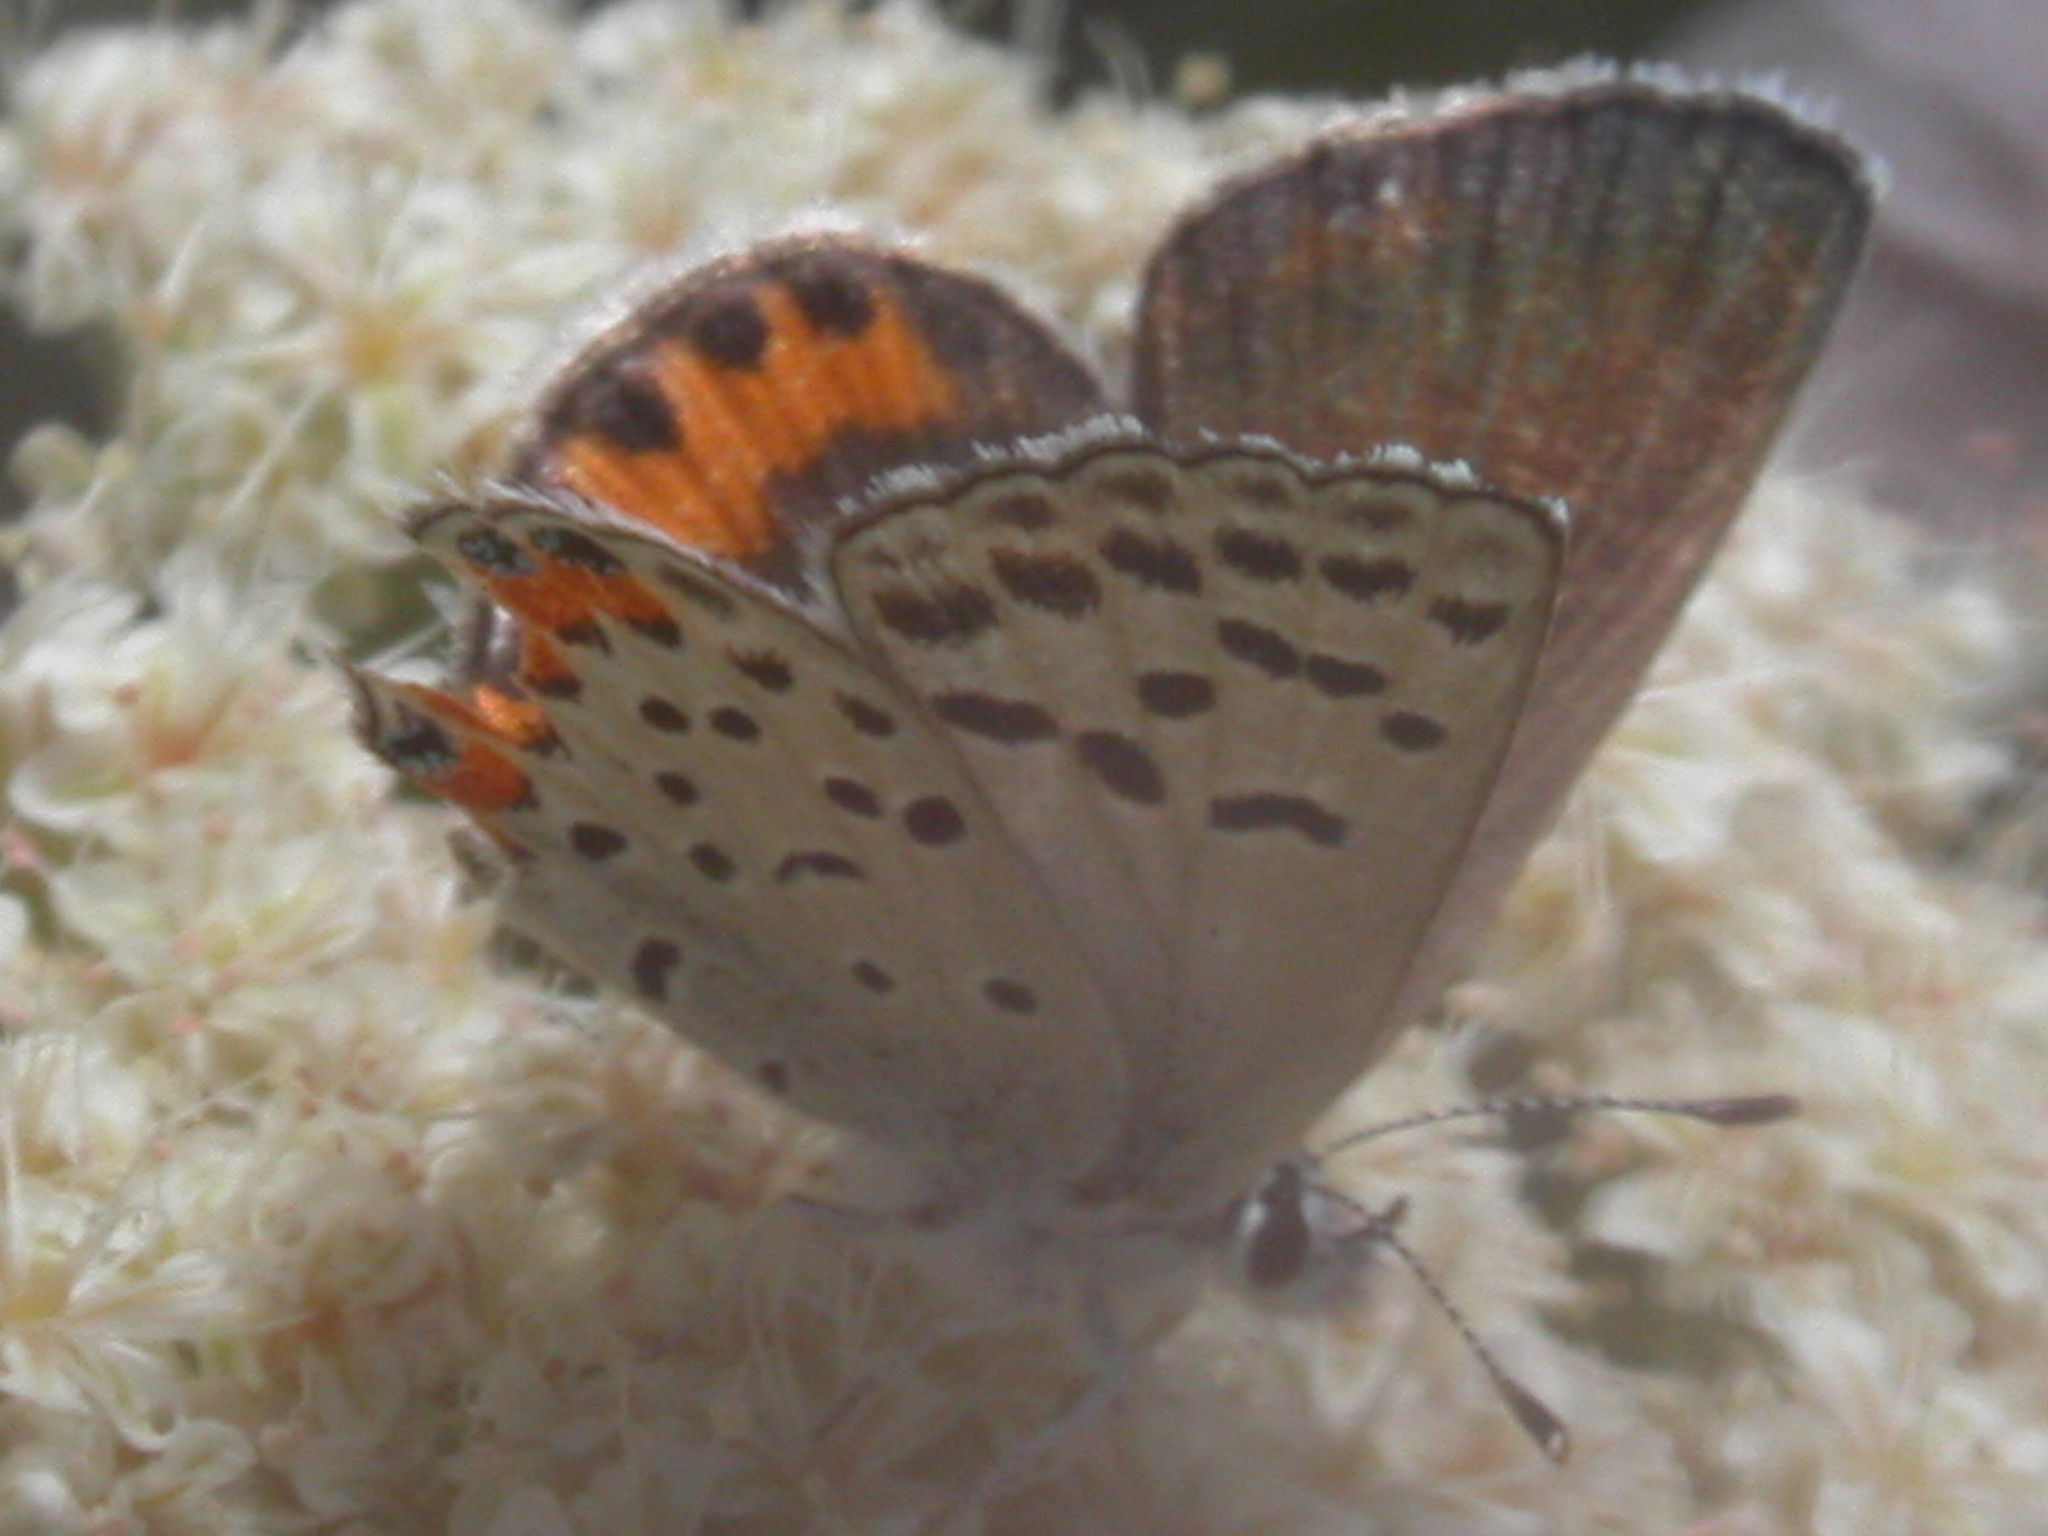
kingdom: Animalia
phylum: Arthropoda
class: Insecta
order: Lepidoptera
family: Lycaenidae
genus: Icaricia
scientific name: Icaricia acmon
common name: Acmon blue
